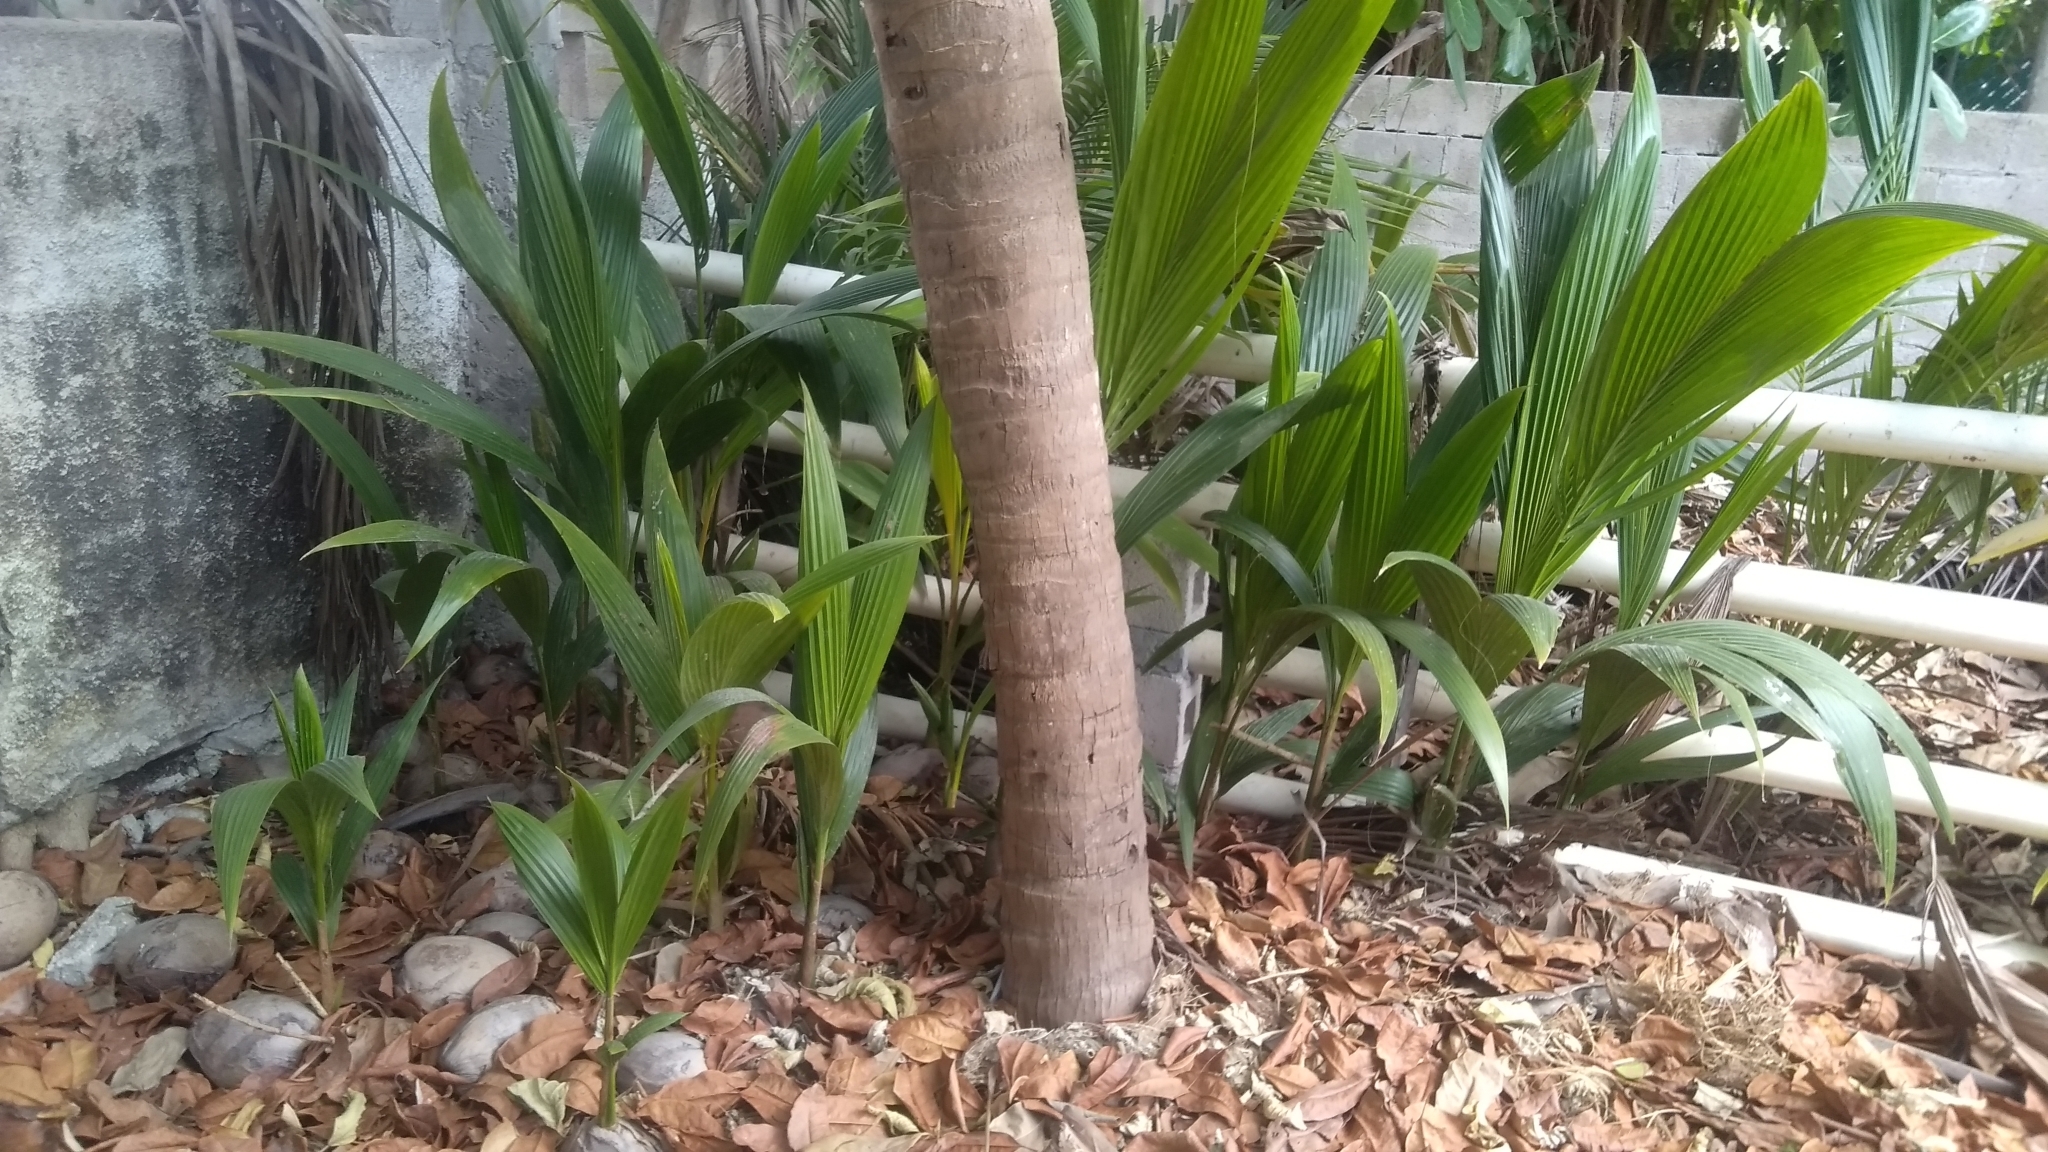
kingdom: Plantae
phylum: Tracheophyta
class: Liliopsida
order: Arecales
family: Arecaceae
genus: Cocos
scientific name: Cocos nucifera
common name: Coconut palm
